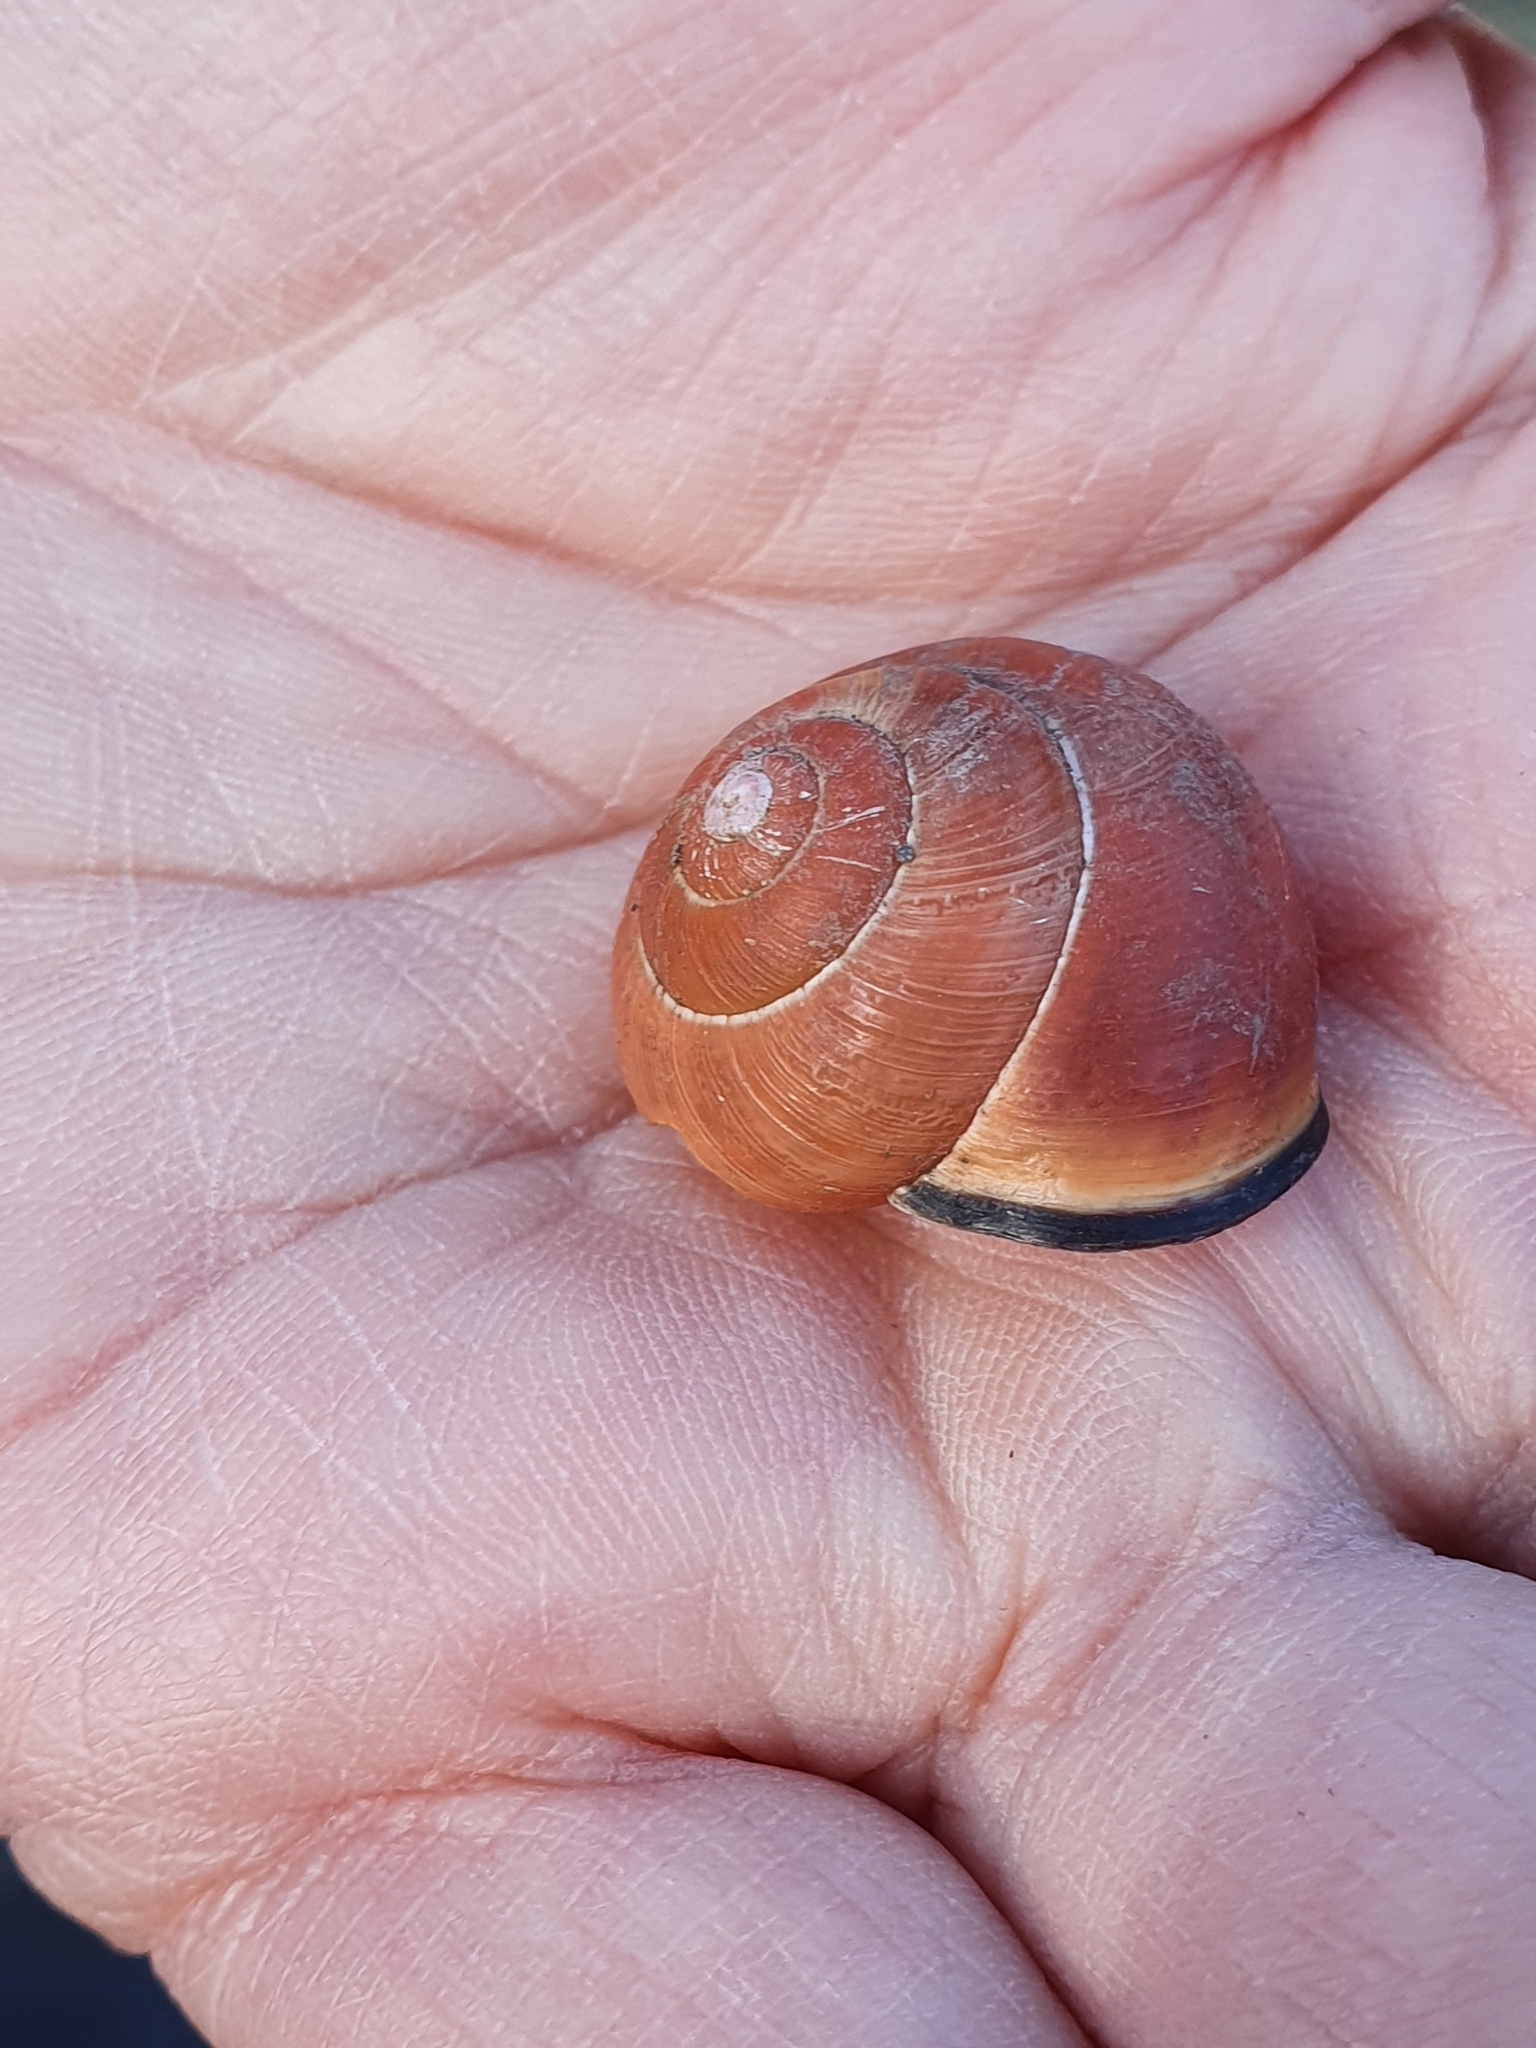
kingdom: Animalia
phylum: Mollusca
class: Gastropoda
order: Stylommatophora
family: Helicidae
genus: Cepaea
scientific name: Cepaea nemoralis
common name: Grovesnail
